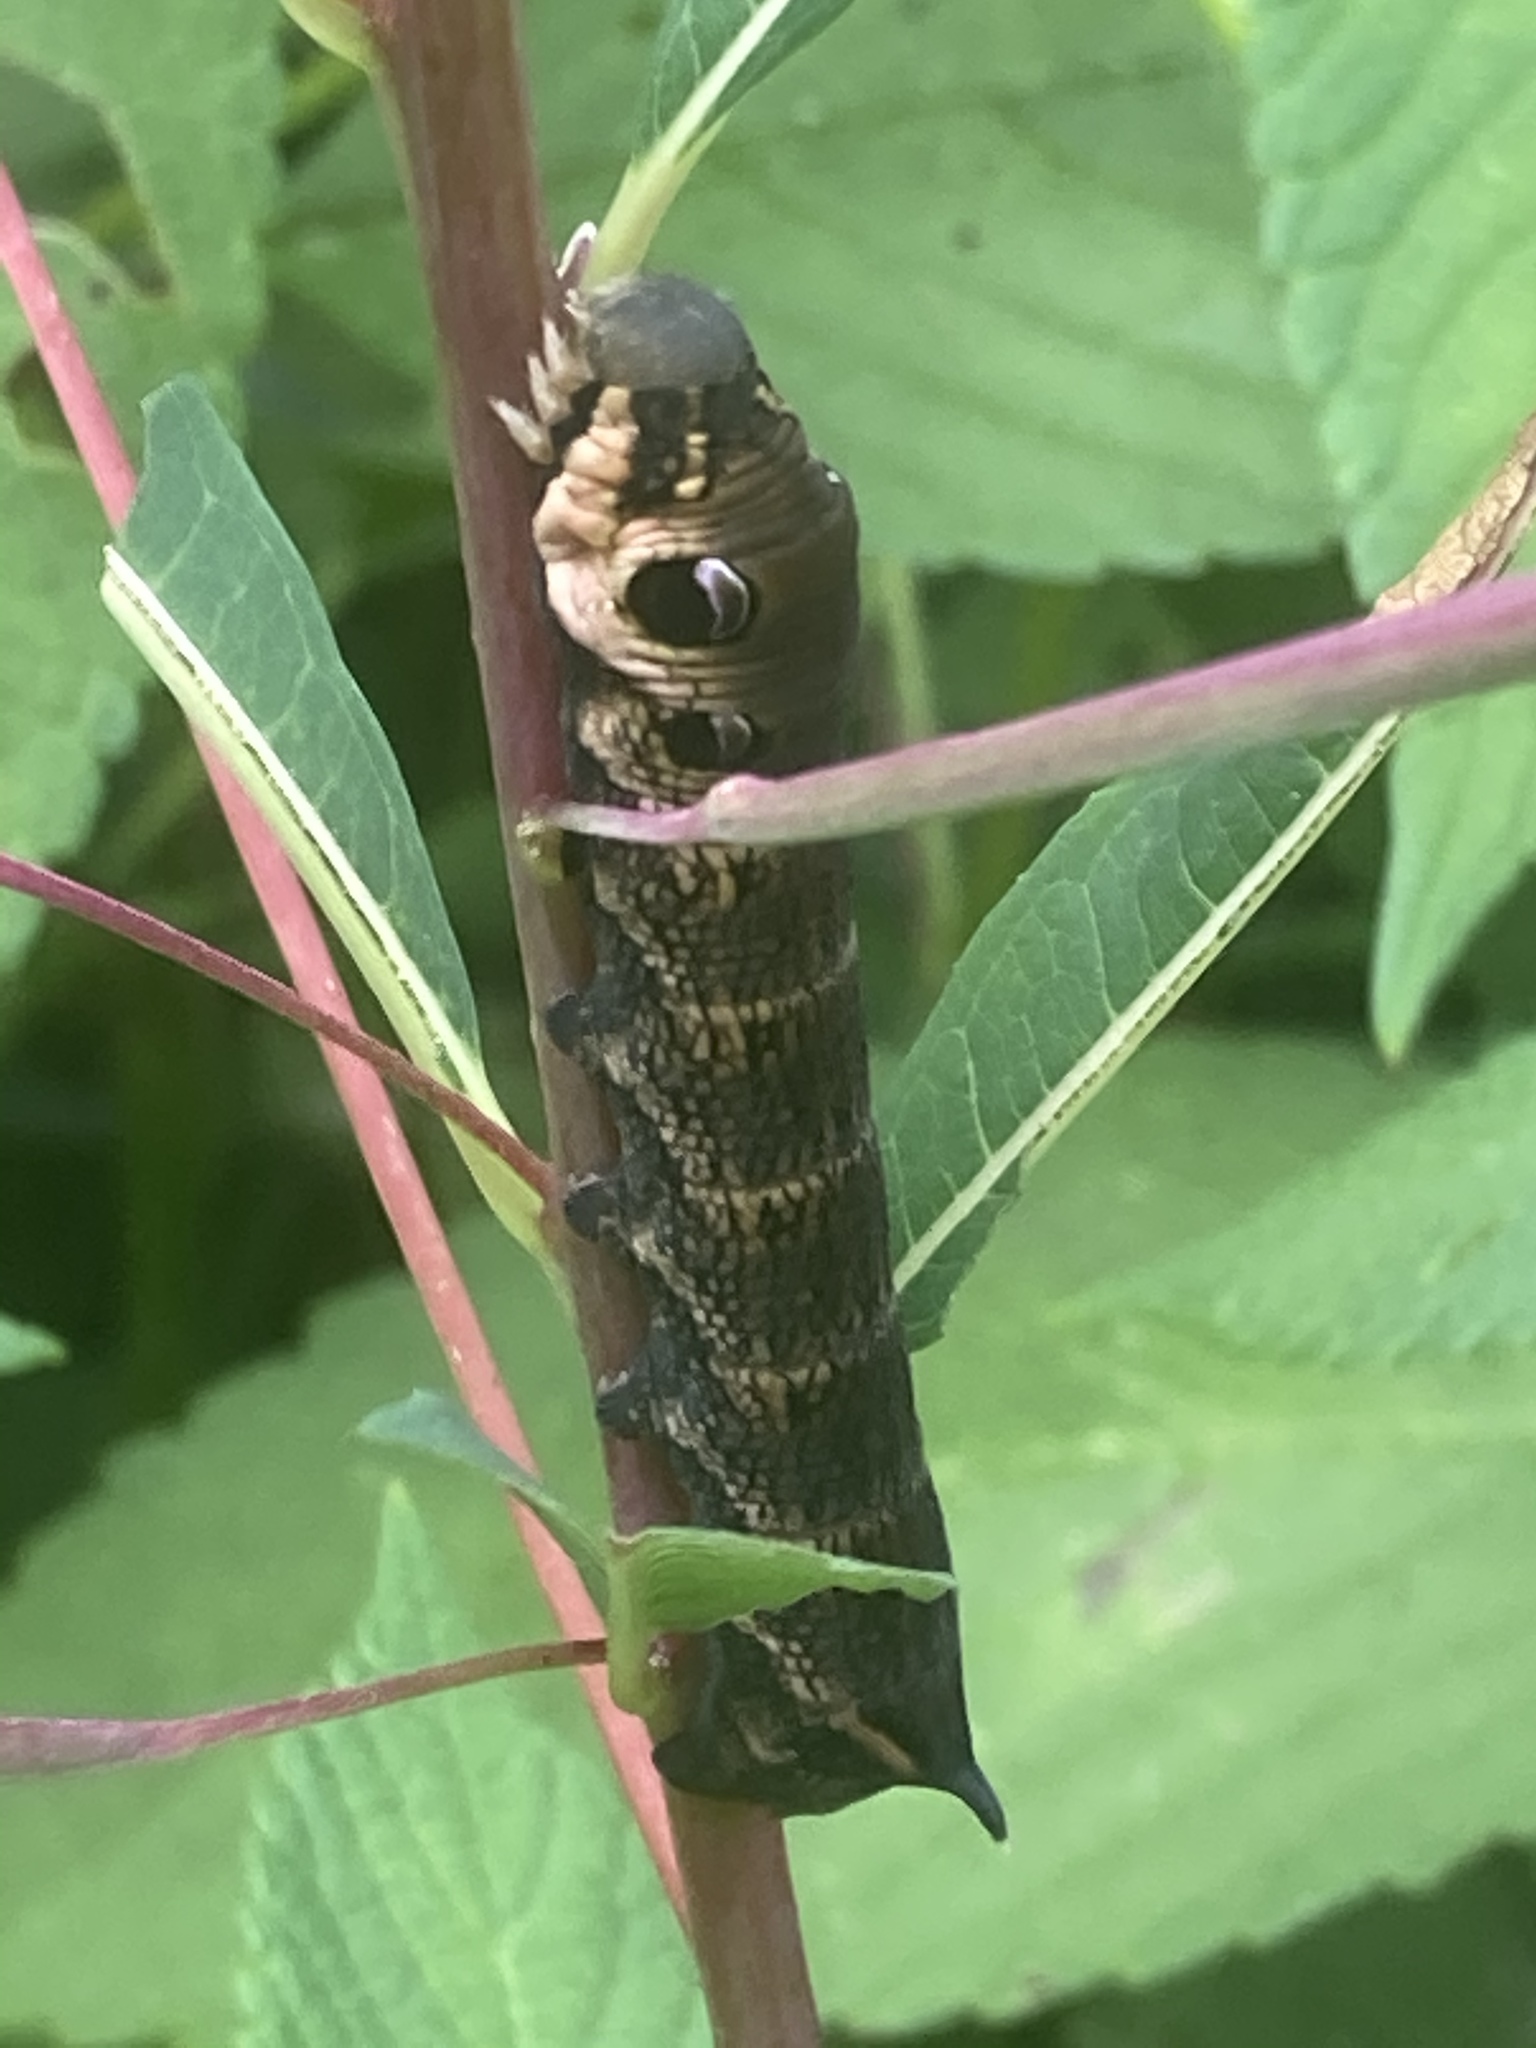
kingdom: Animalia
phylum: Arthropoda
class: Insecta
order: Lepidoptera
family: Sphingidae
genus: Deilephila
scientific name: Deilephila elpenor
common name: Elephant hawk-moth
